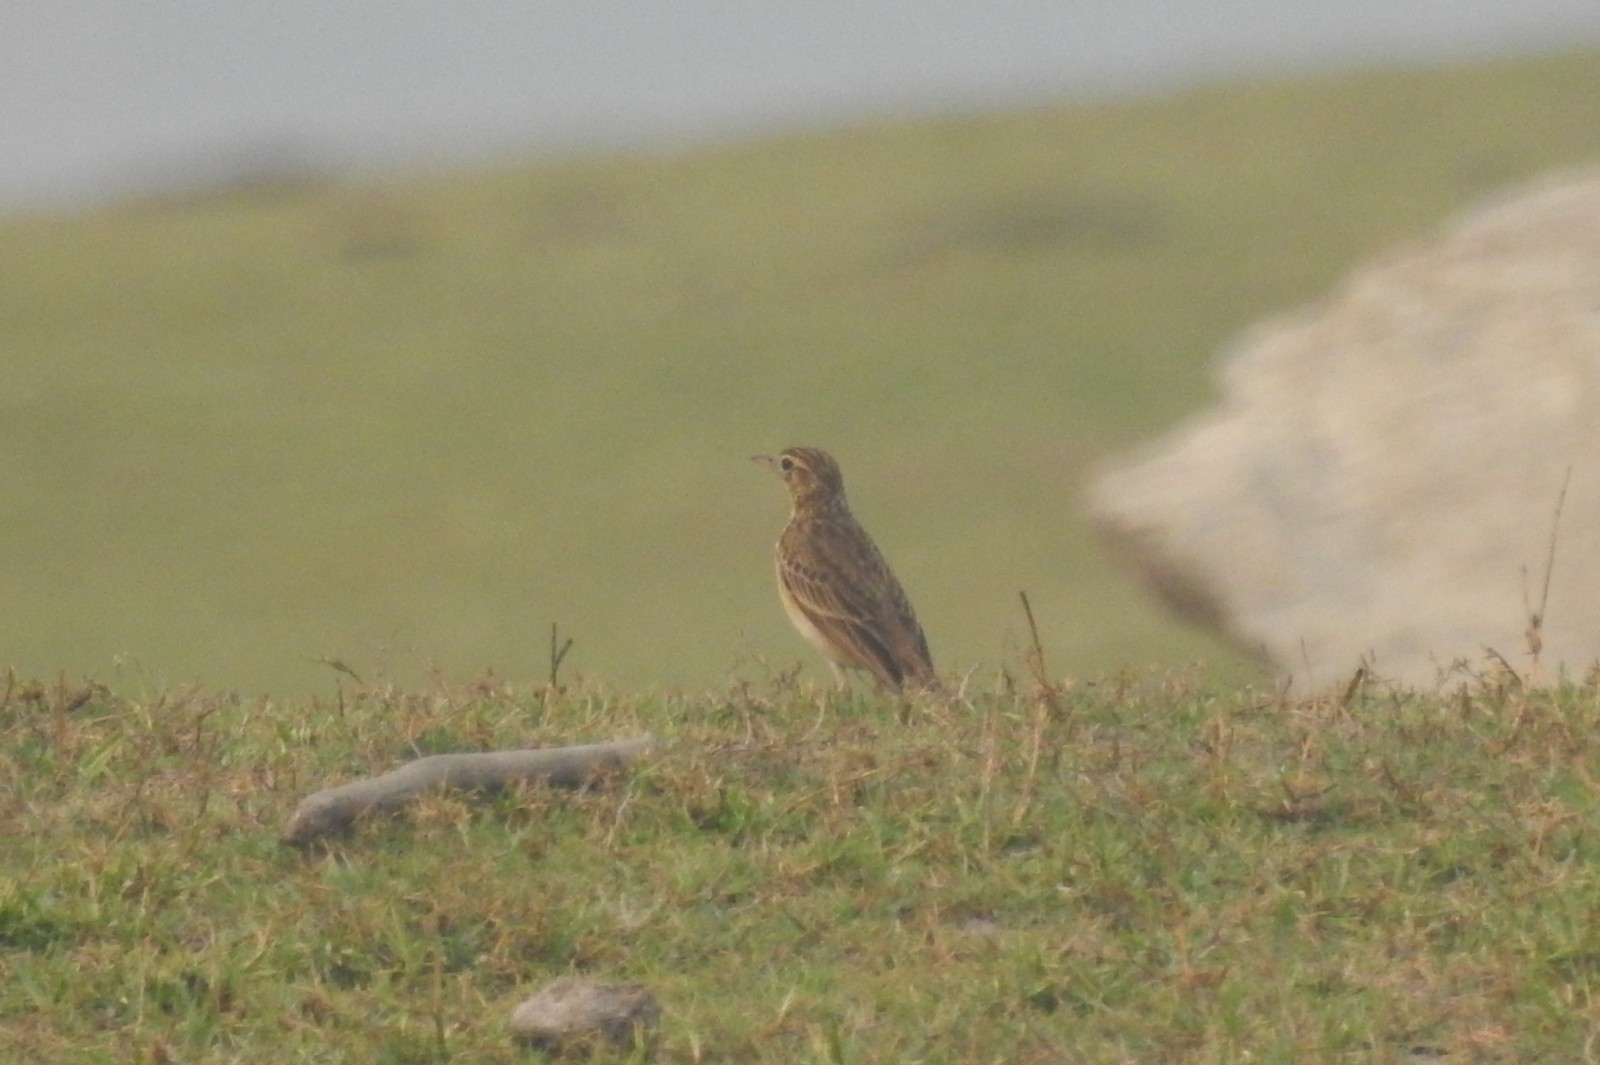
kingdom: Animalia
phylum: Chordata
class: Aves
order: Passeriformes
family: Motacillidae
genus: Anthus
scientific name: Anthus rufulus
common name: Paddyfield pipit
